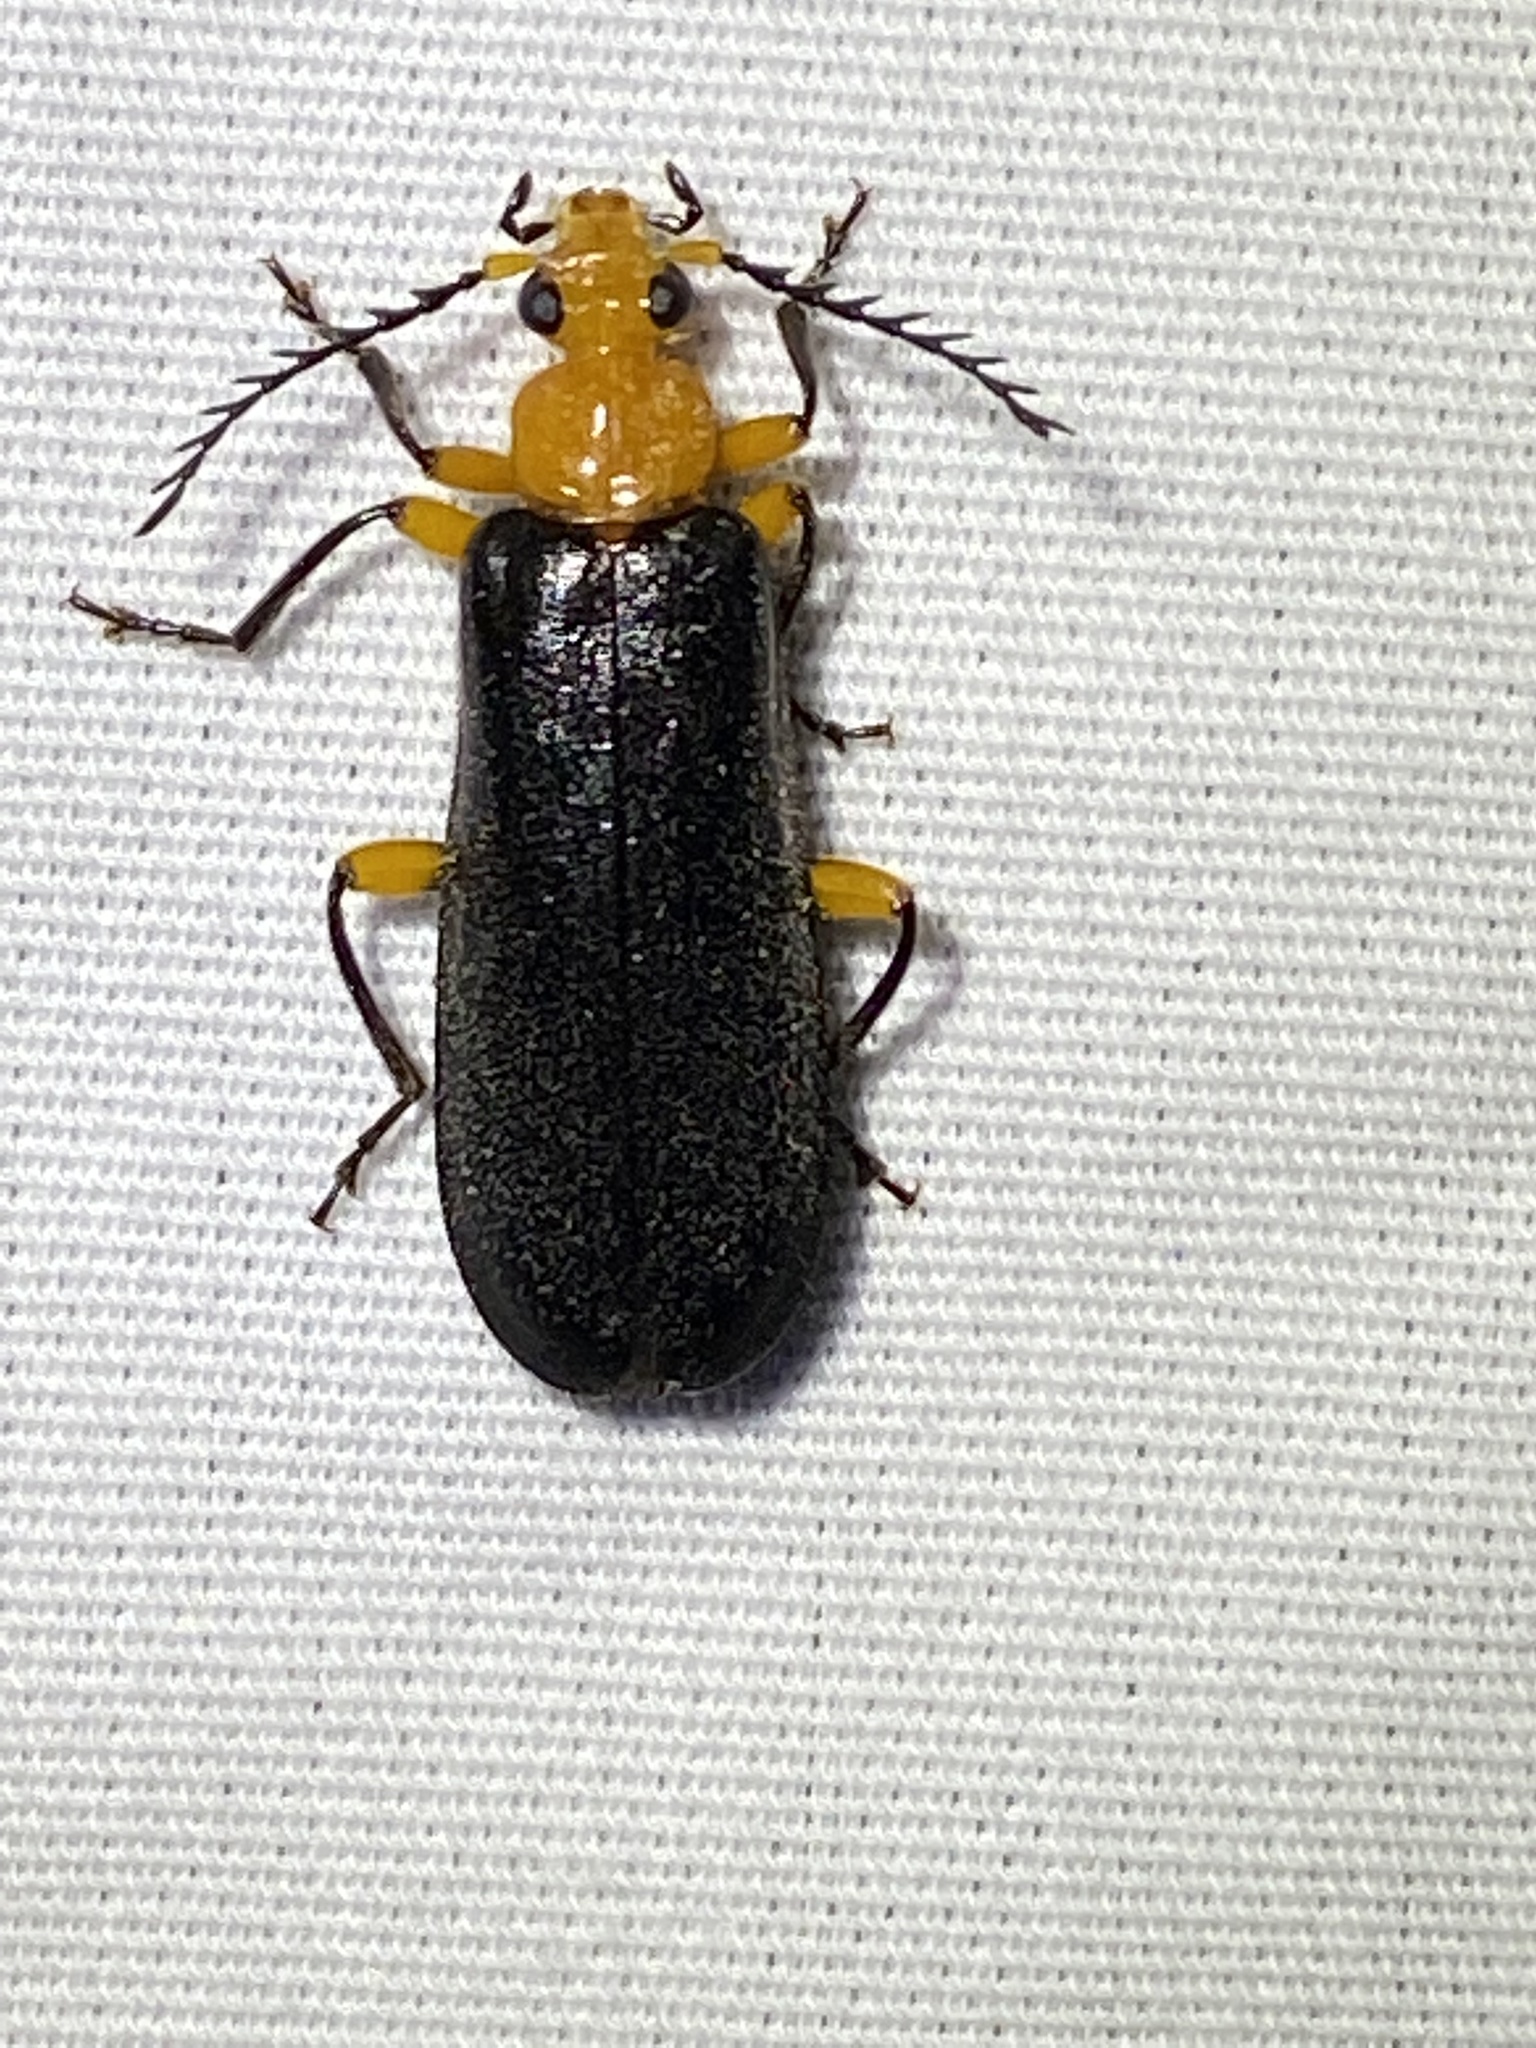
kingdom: Animalia
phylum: Arthropoda
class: Insecta
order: Coleoptera
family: Pyrochroidae
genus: Neopyrochroa
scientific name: Neopyrochroa femoralis
